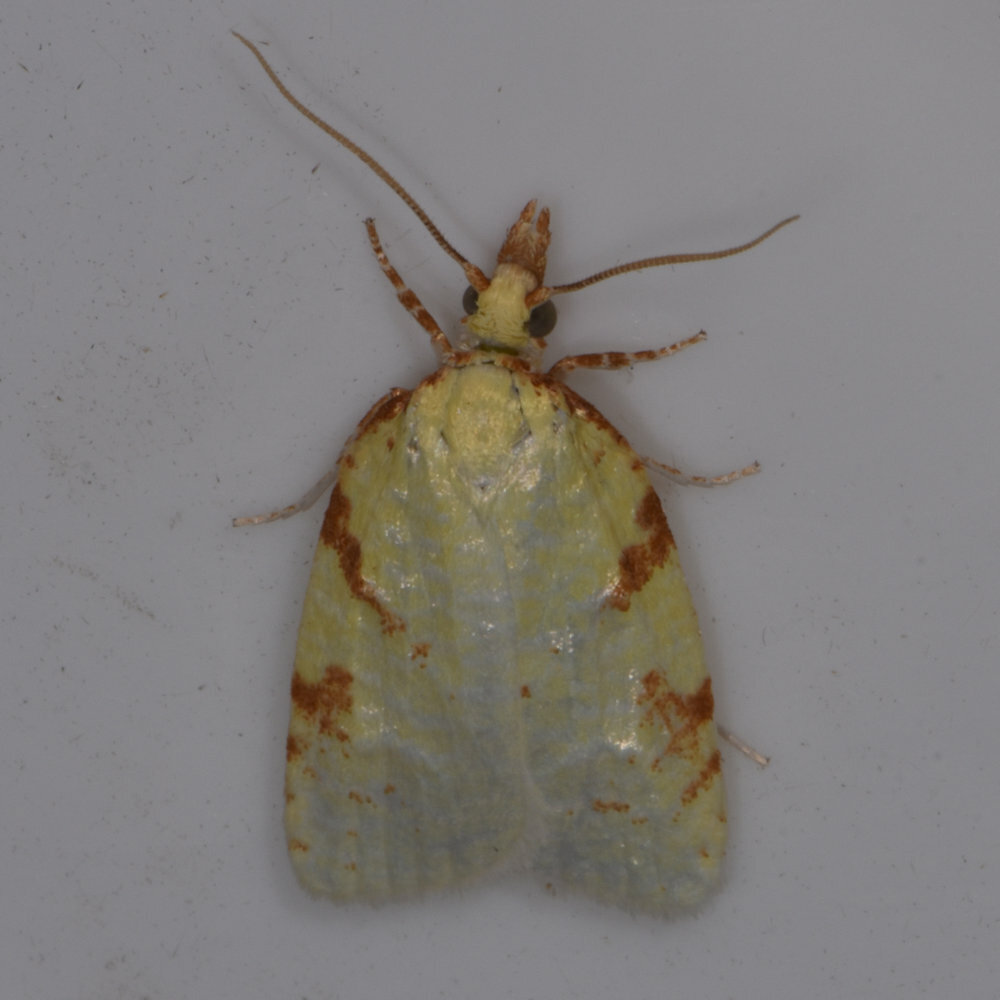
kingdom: Animalia
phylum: Arthropoda
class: Insecta
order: Lepidoptera
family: Tortricidae
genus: Cenopis
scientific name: Cenopis pettitana
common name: Maple-basswood leafroller moth
